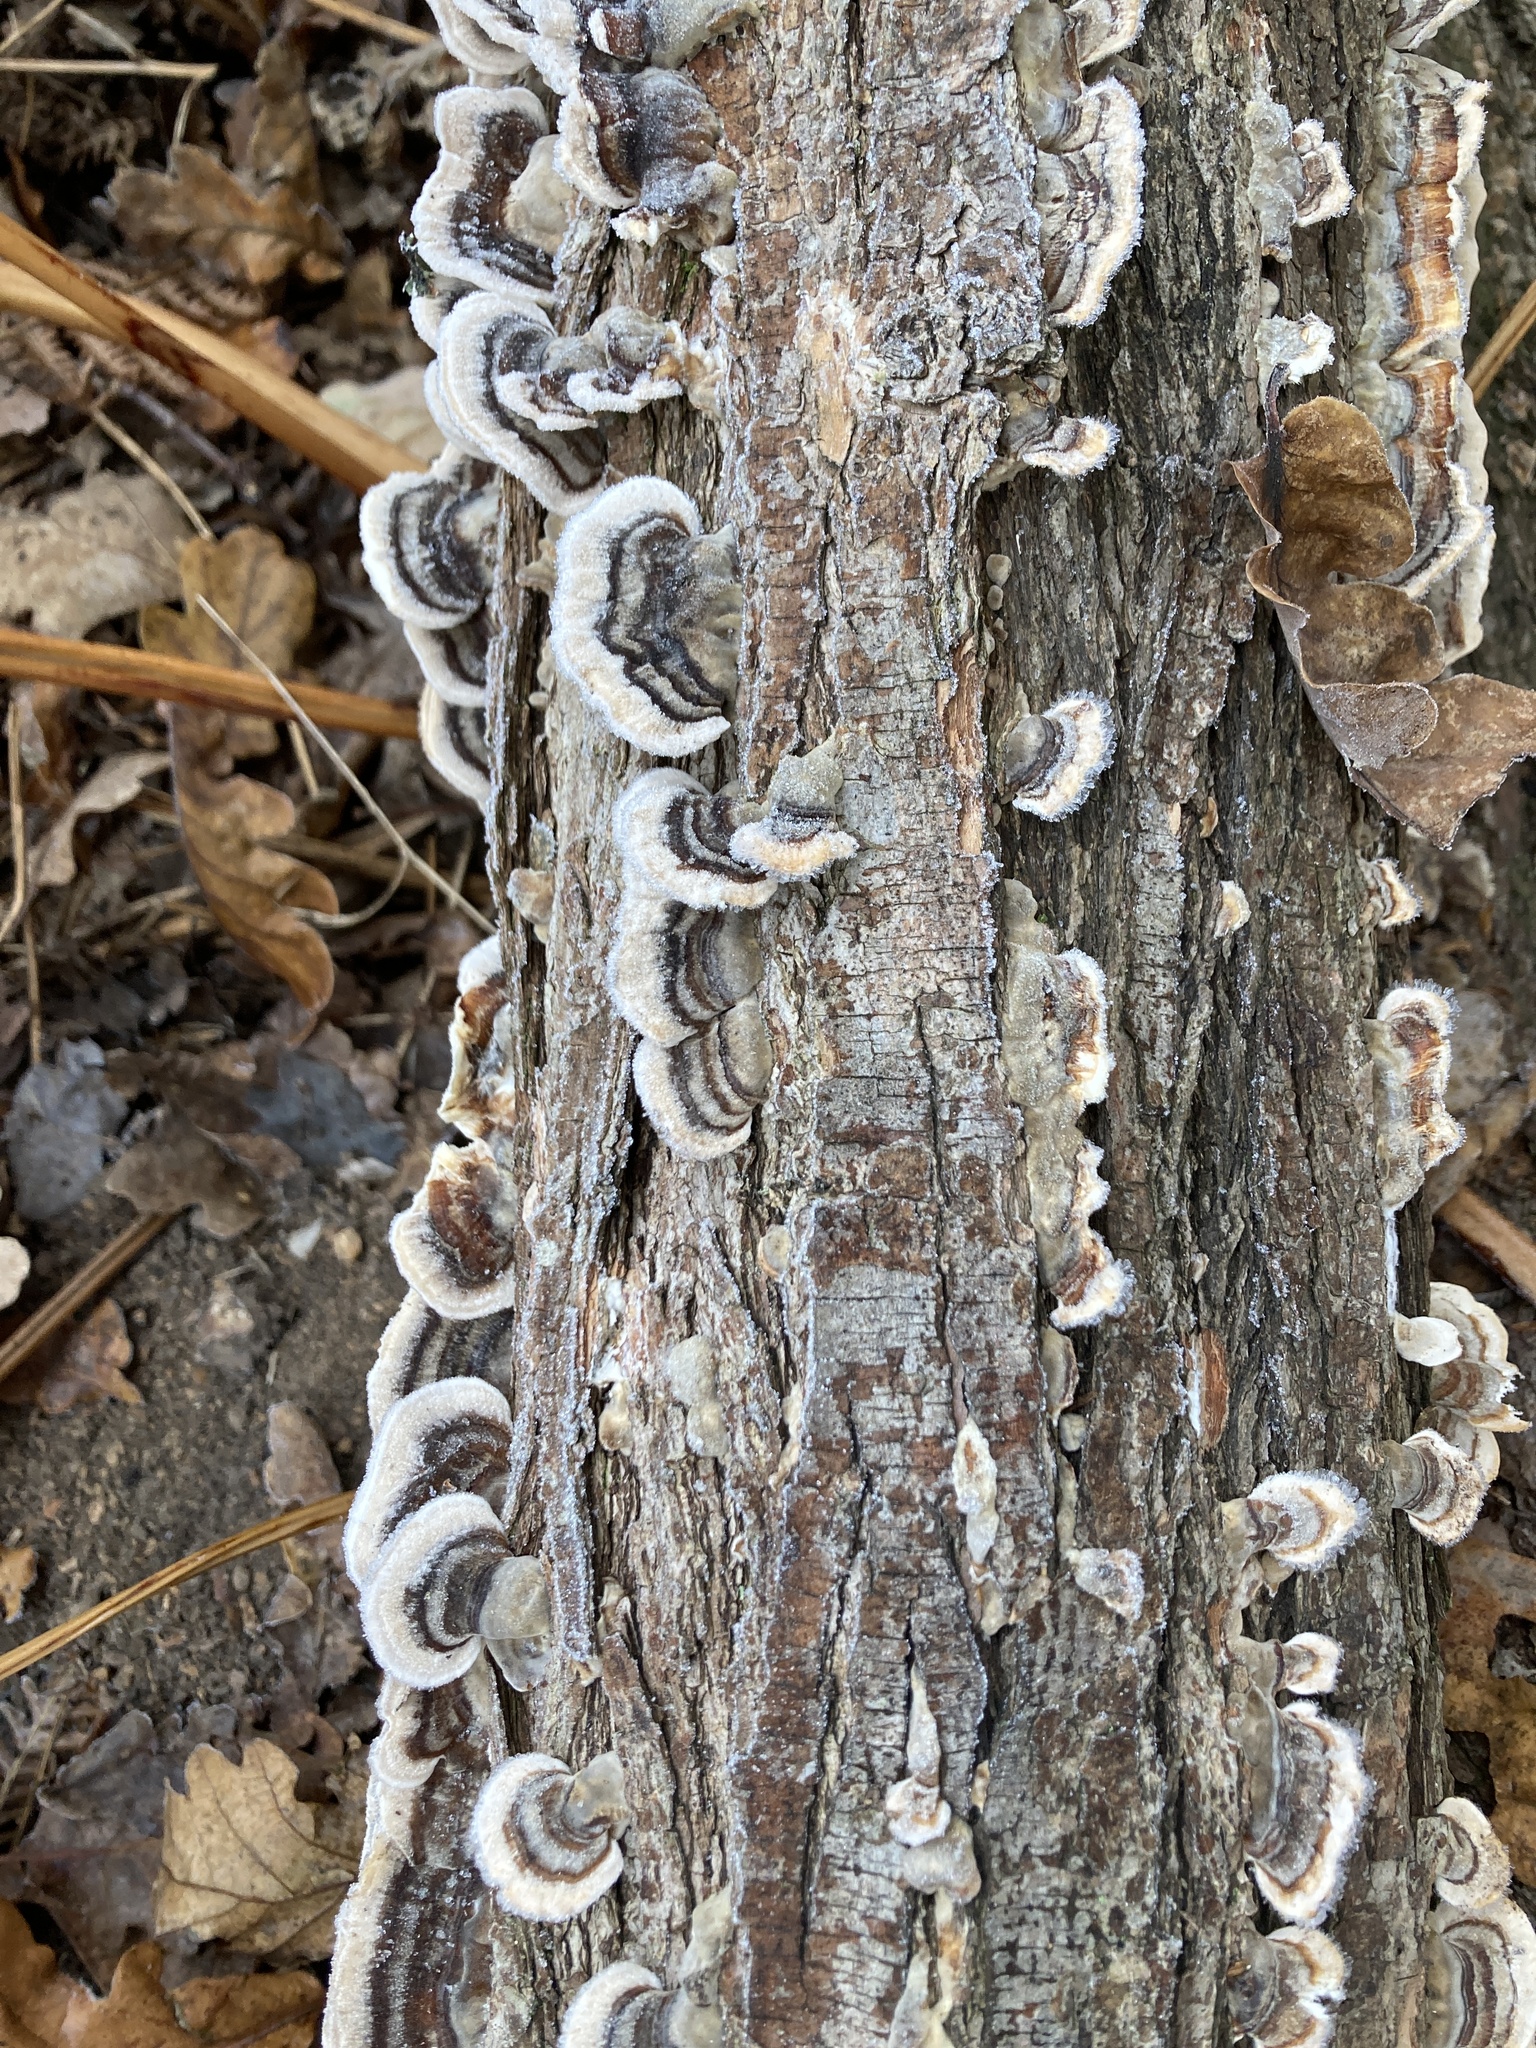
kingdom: Fungi
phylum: Basidiomycota
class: Agaricomycetes
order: Polyporales
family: Polyporaceae
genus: Trametes
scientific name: Trametes versicolor
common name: Turkeytail
